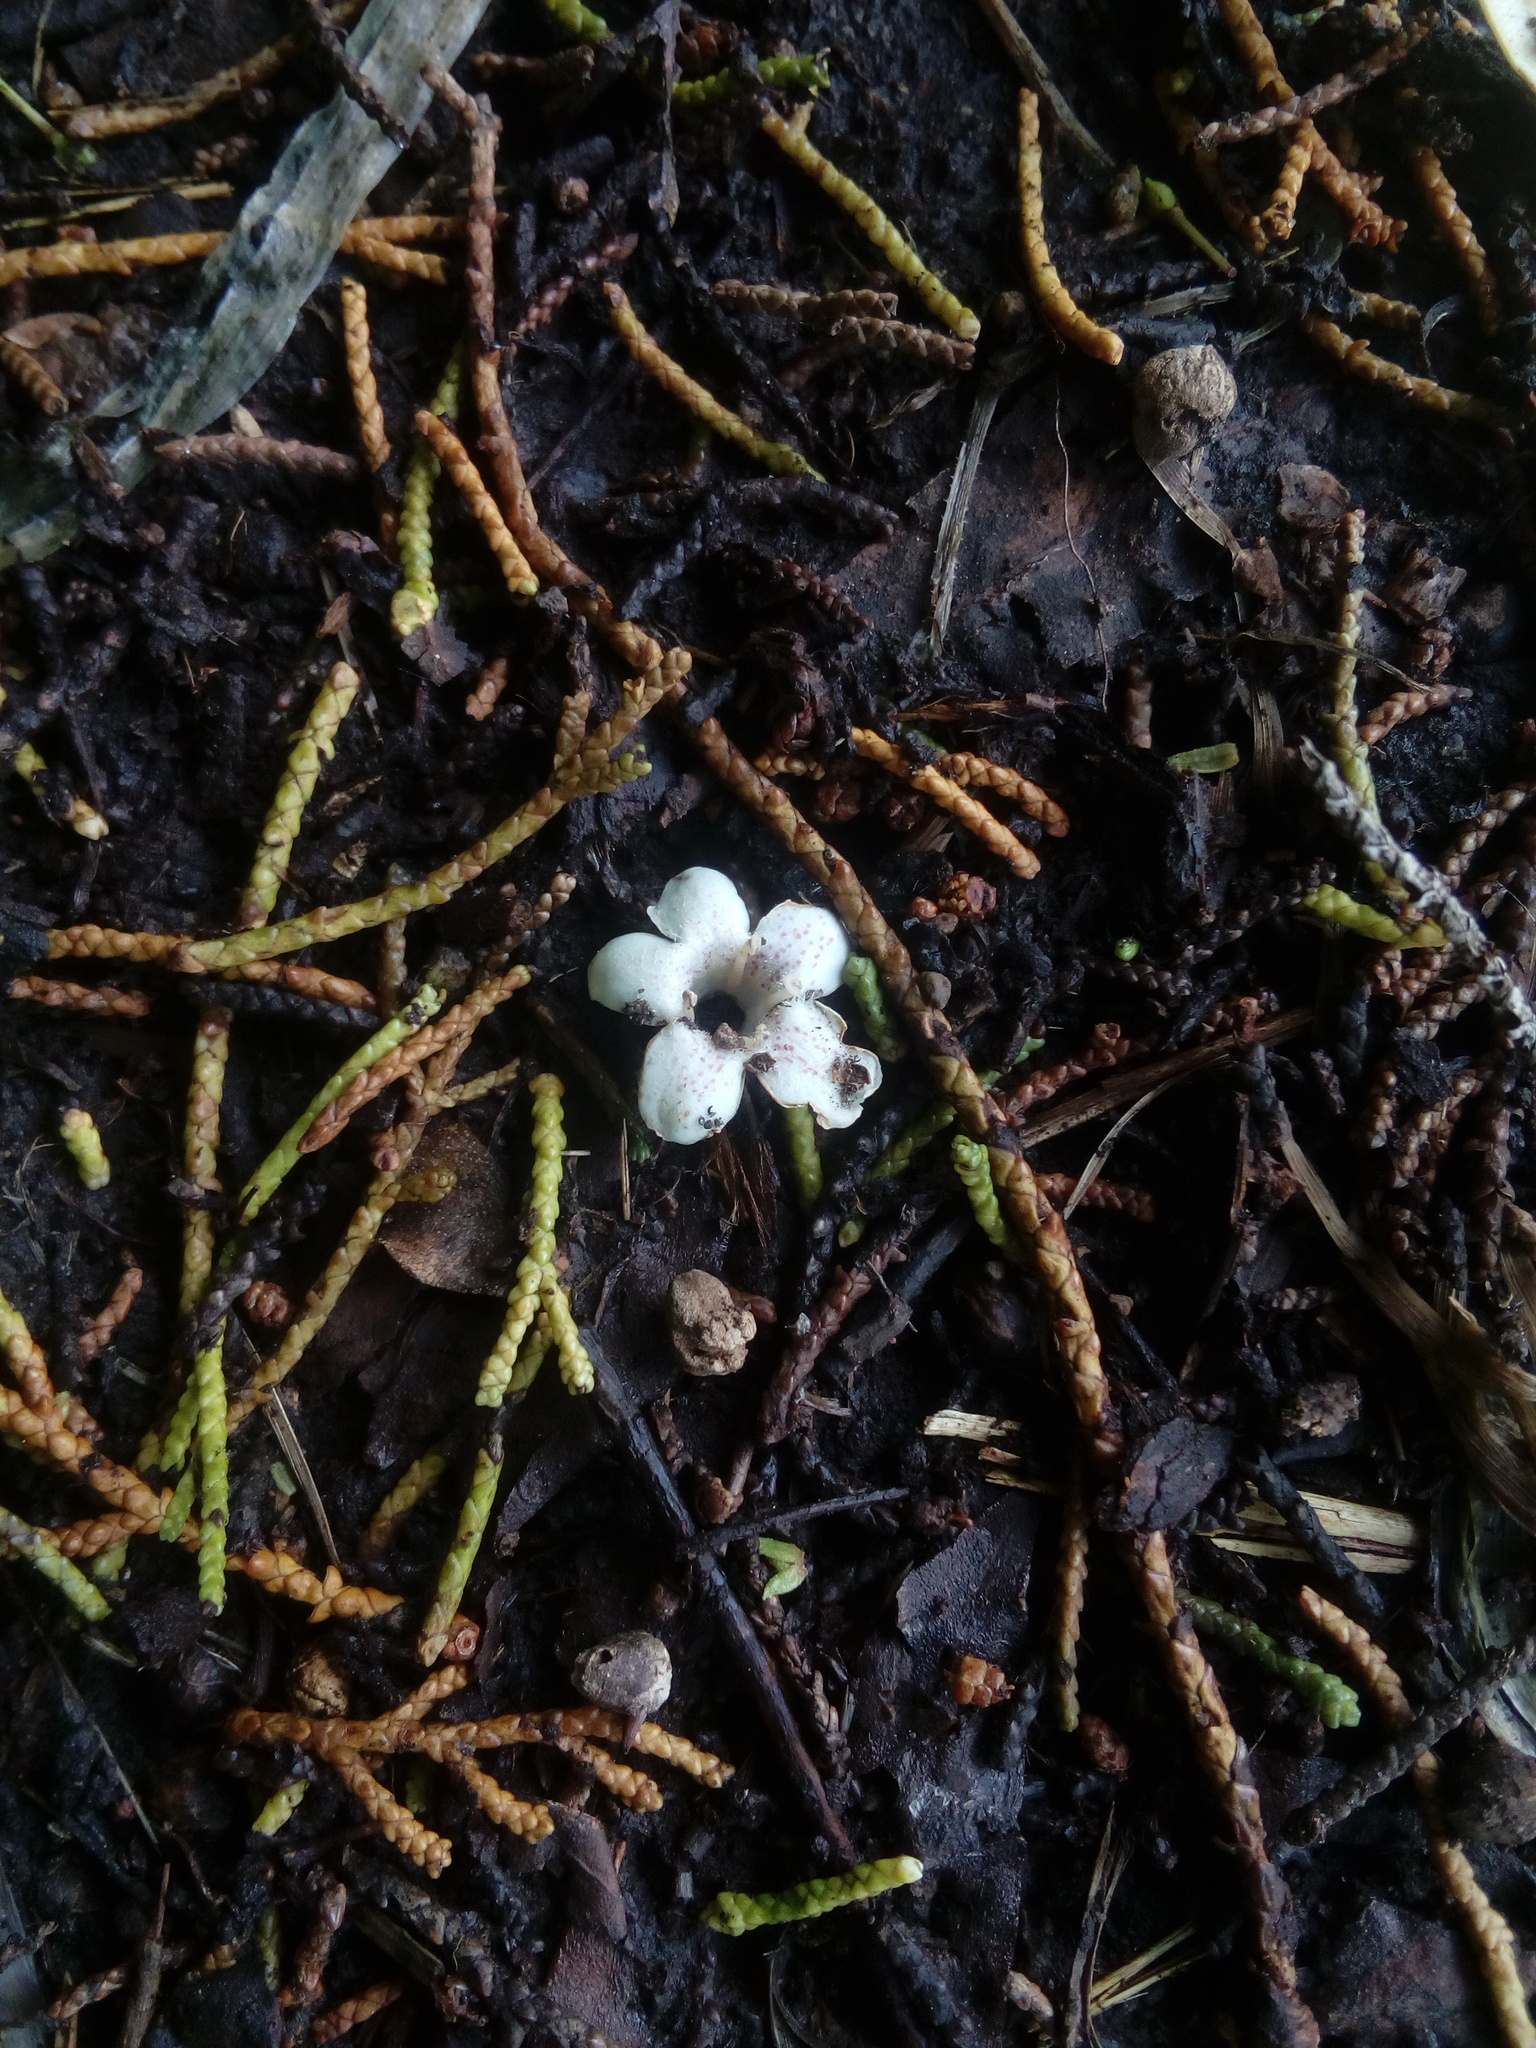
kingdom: Plantae
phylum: Tracheophyta
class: Magnoliopsida
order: Lamiales
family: Scrophulariaceae
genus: Myoporum
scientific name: Myoporum laetum
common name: Ngaio tree
